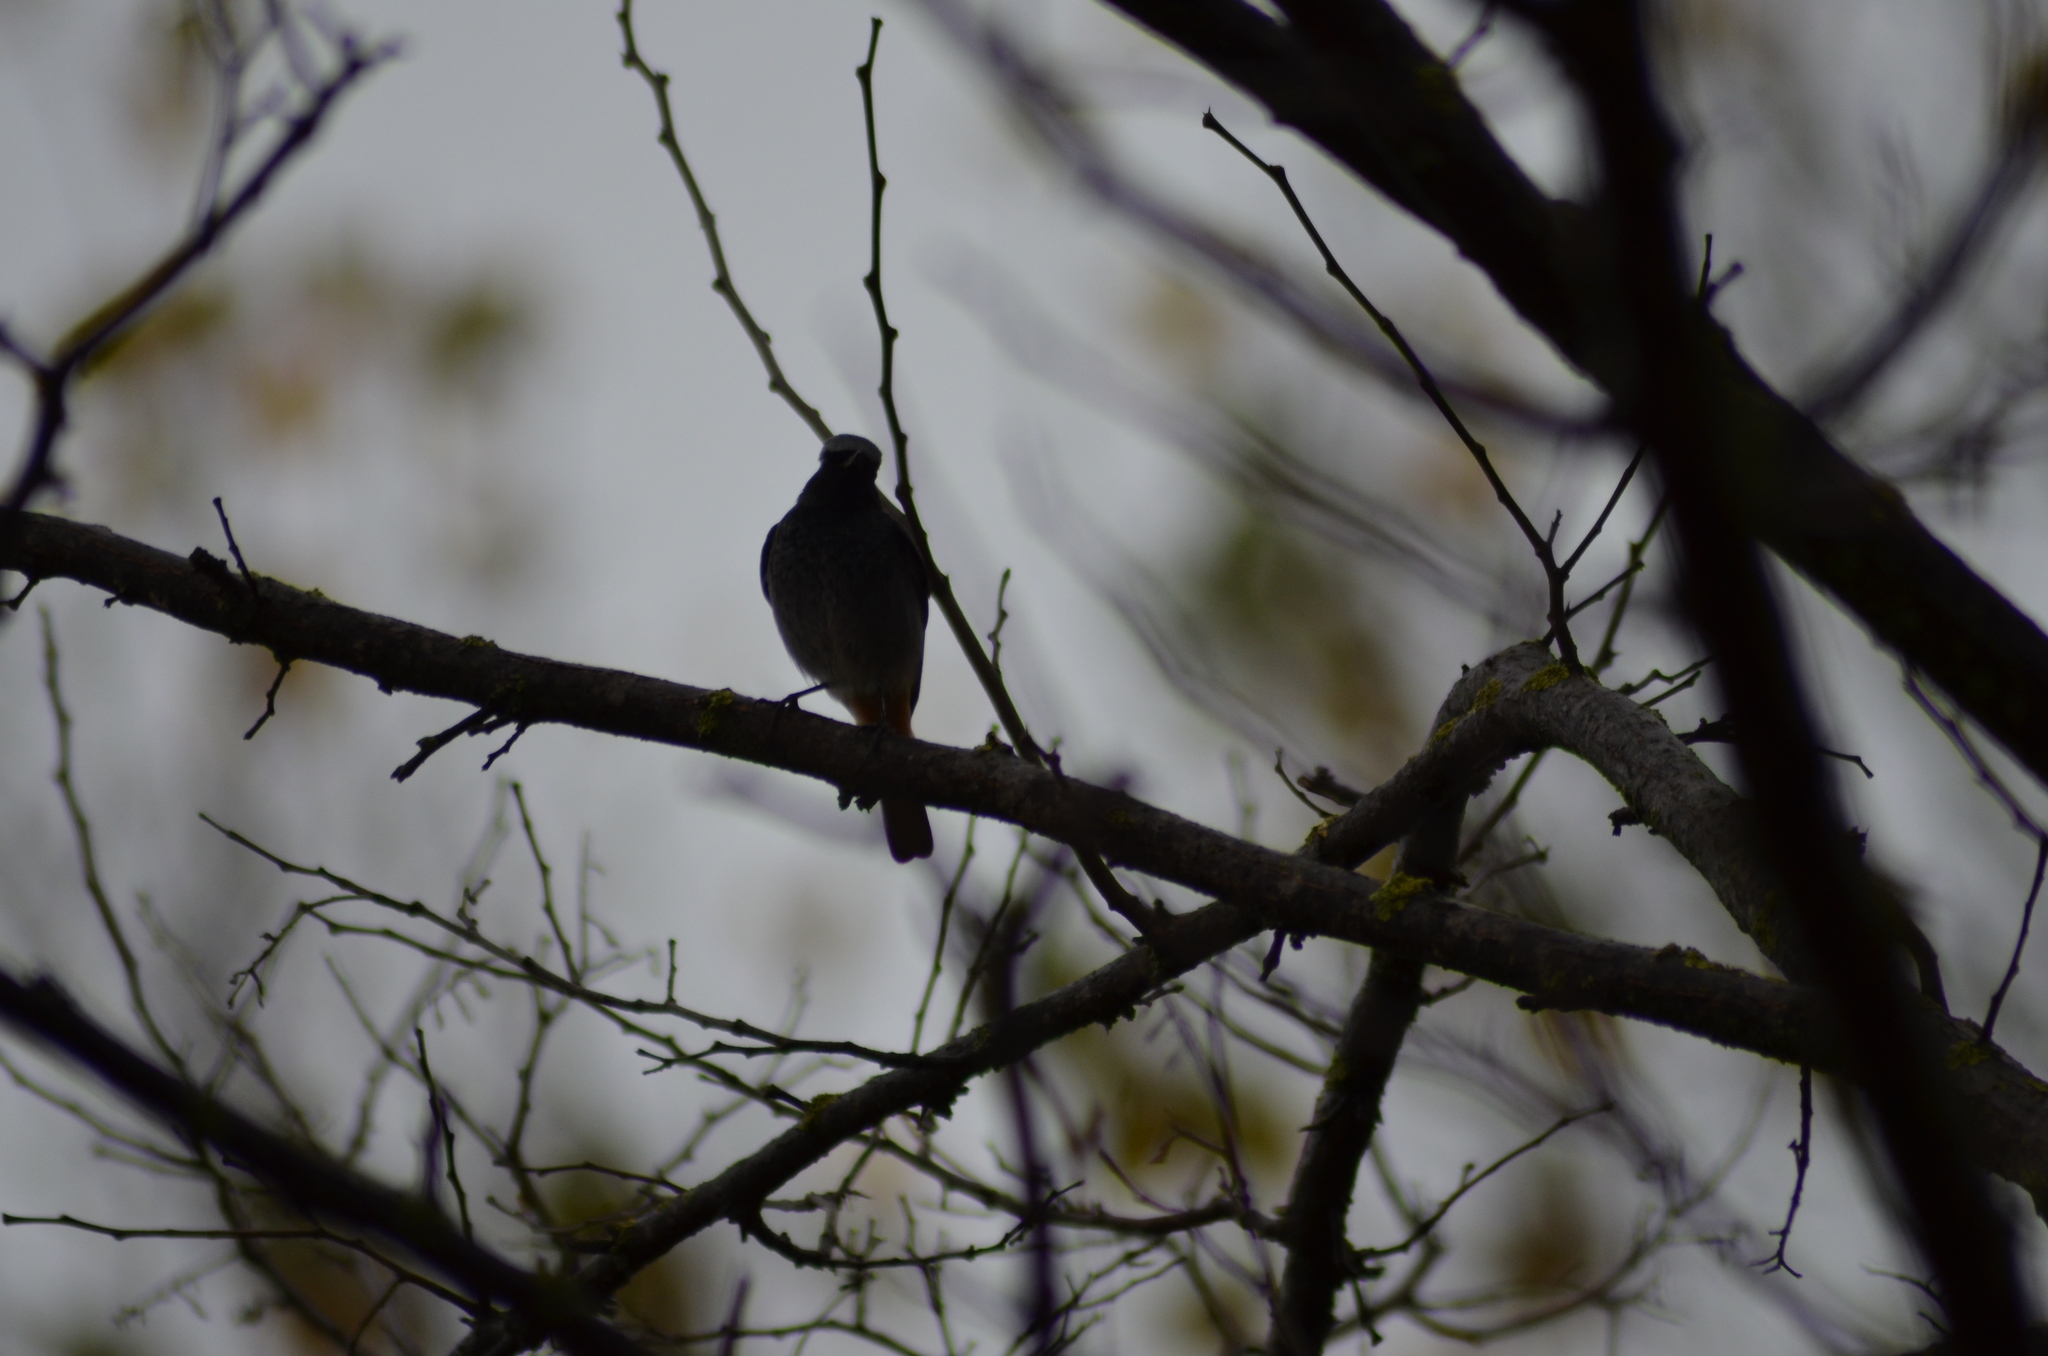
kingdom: Animalia
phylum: Chordata
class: Aves
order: Passeriformes
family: Muscicapidae
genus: Phoenicurus
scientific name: Phoenicurus ochruros
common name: Black redstart
